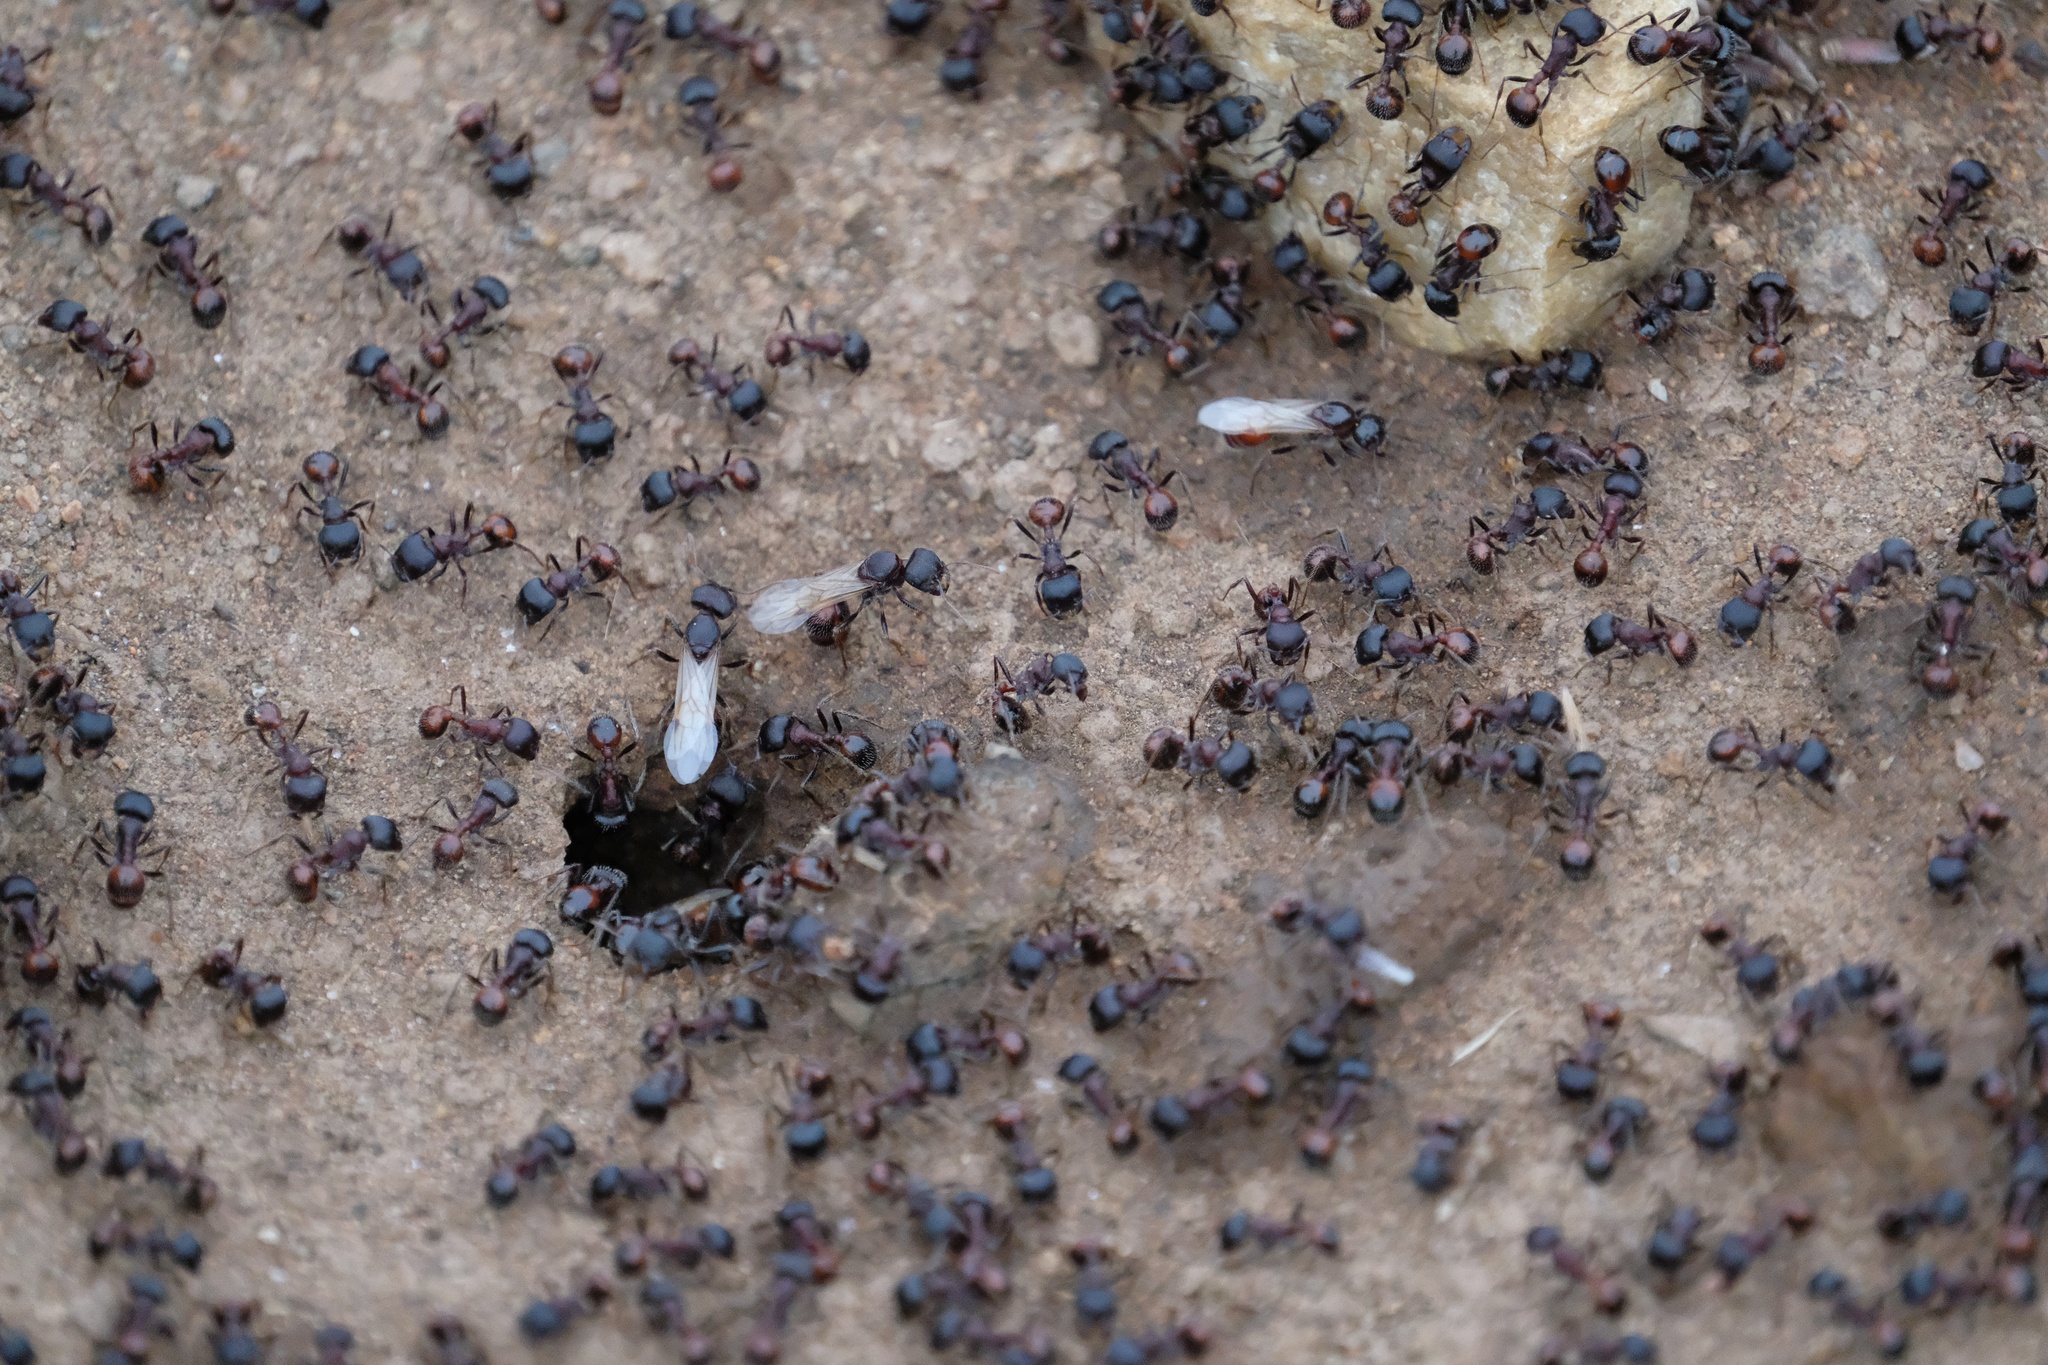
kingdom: Animalia
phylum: Arthropoda
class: Insecta
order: Hymenoptera
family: Formicidae
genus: Pogonomyrmex
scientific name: Pogonomyrmex rugosus
